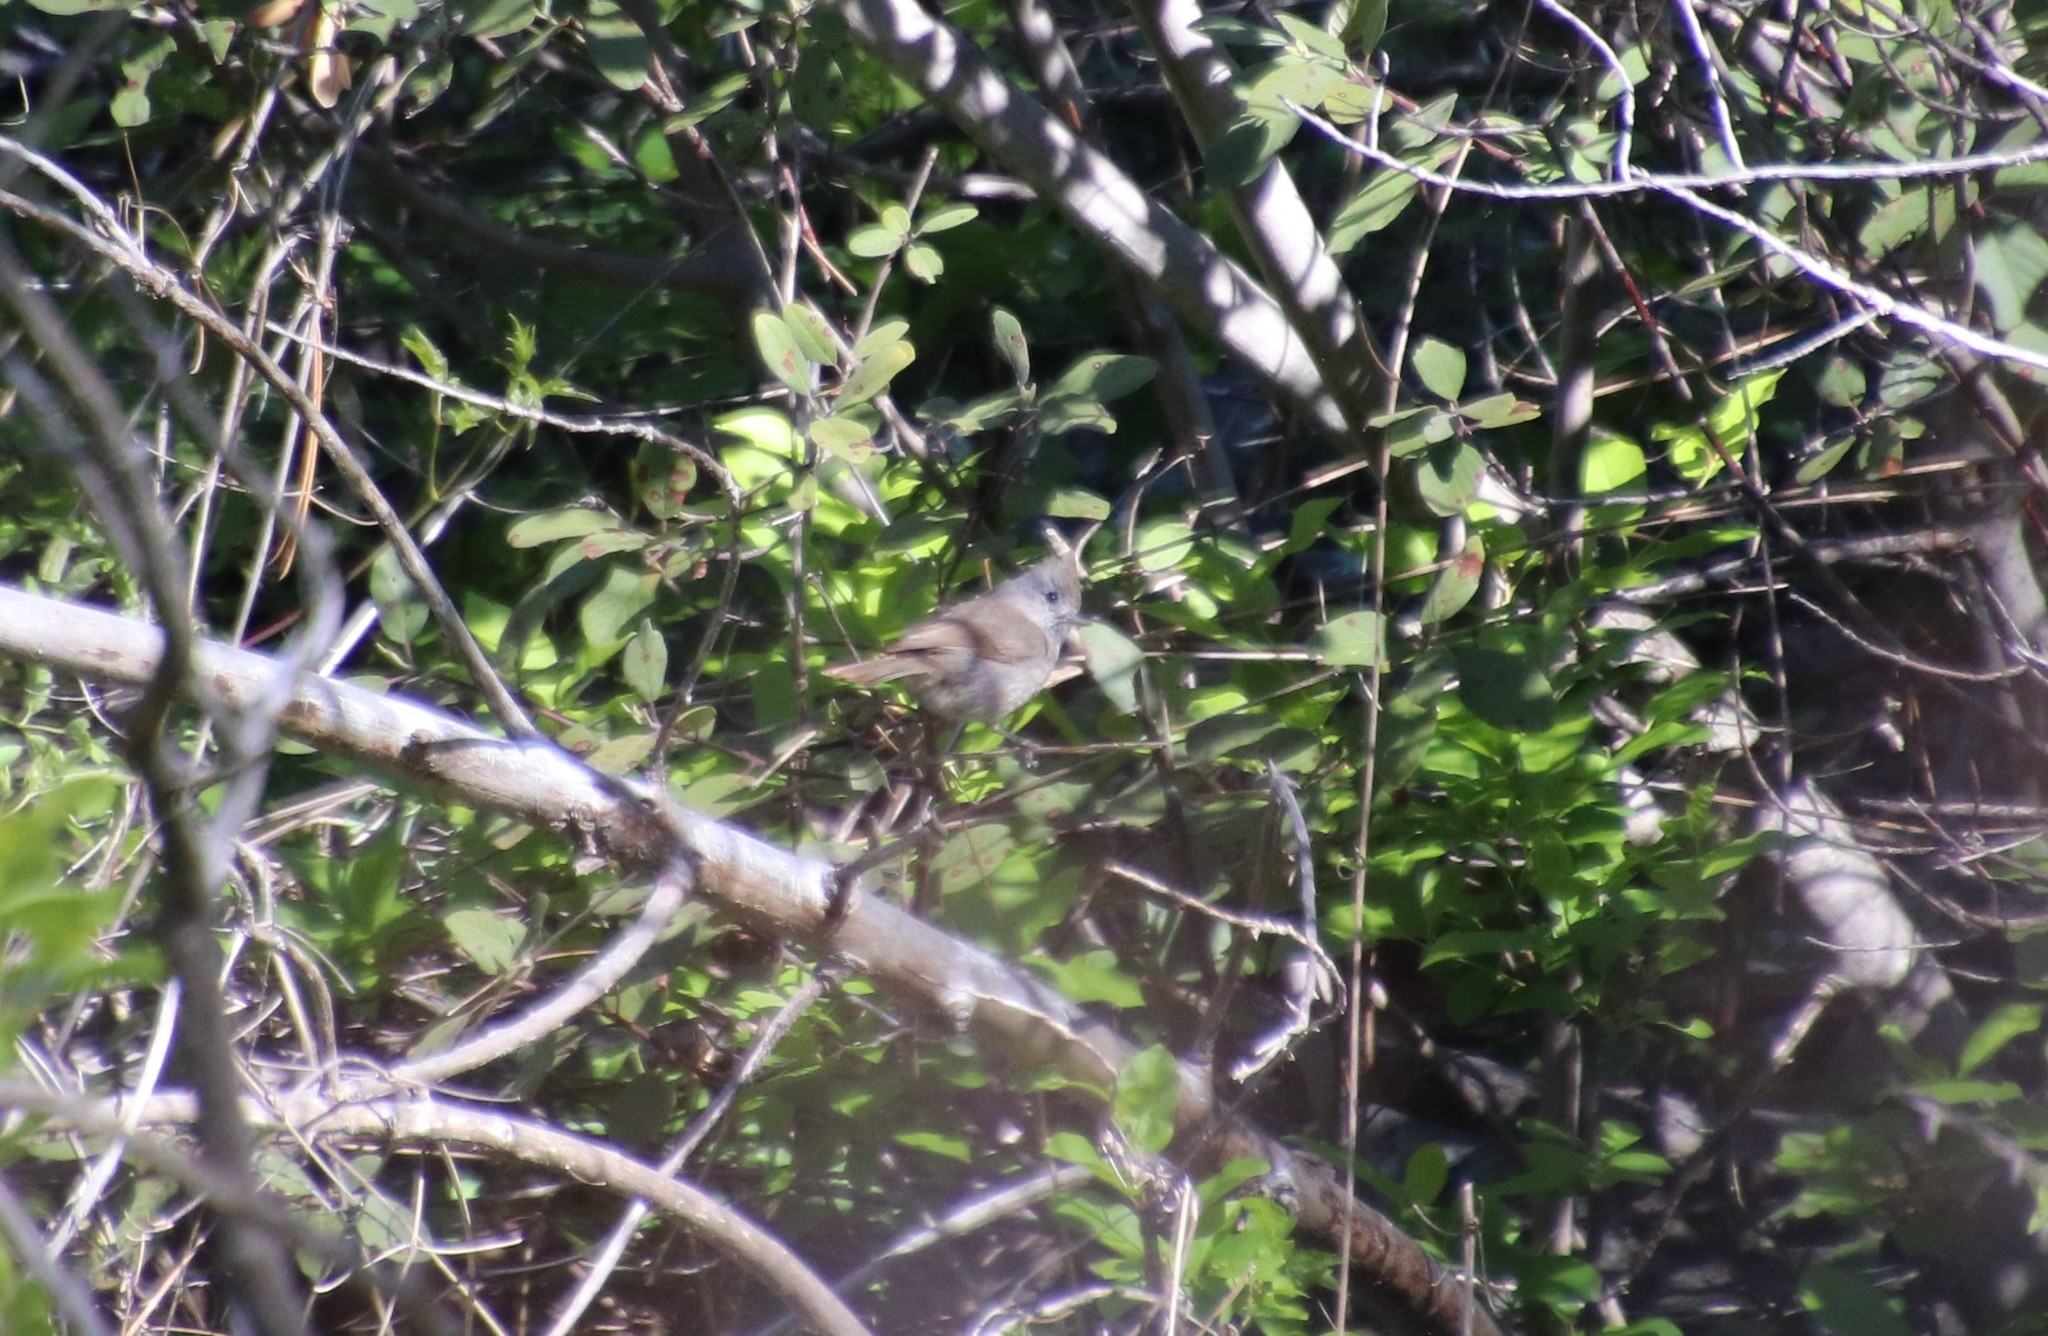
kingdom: Animalia
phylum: Chordata
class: Aves
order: Passeriformes
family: Paridae
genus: Baeolophus
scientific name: Baeolophus inornatus
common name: Oak titmouse
